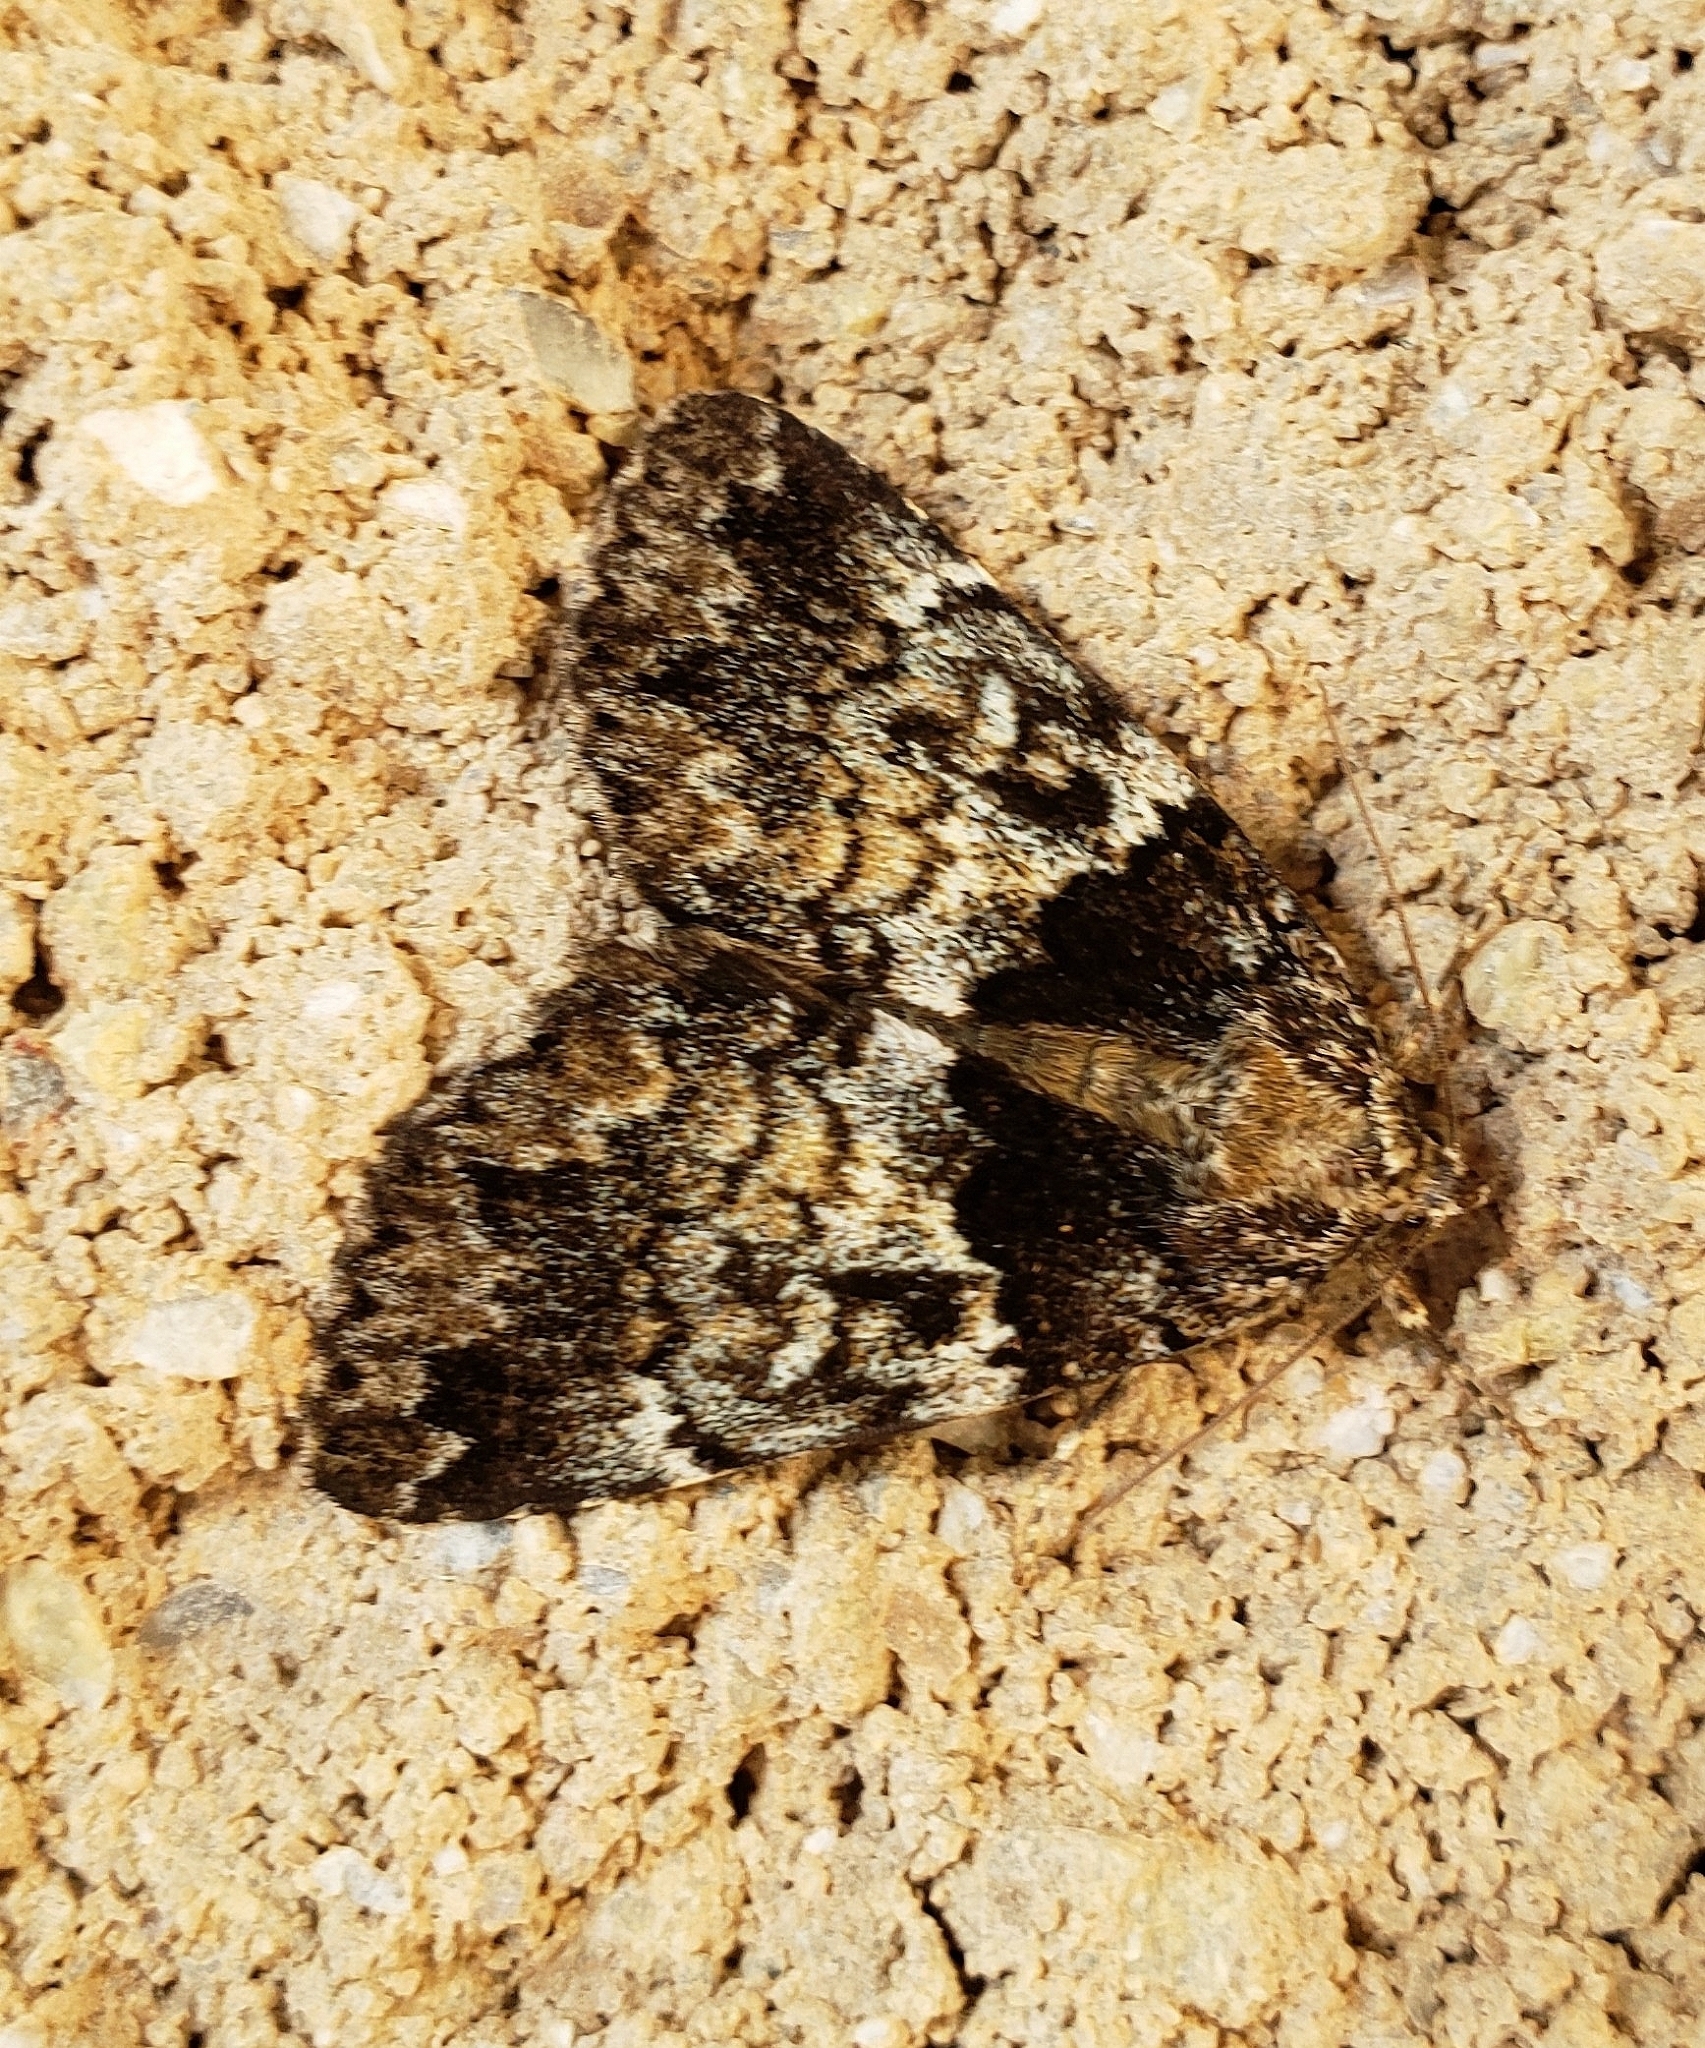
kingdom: Animalia
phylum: Arthropoda
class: Insecta
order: Lepidoptera
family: Erebidae
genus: Allotria
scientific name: Allotria elonympha
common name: False underwing
